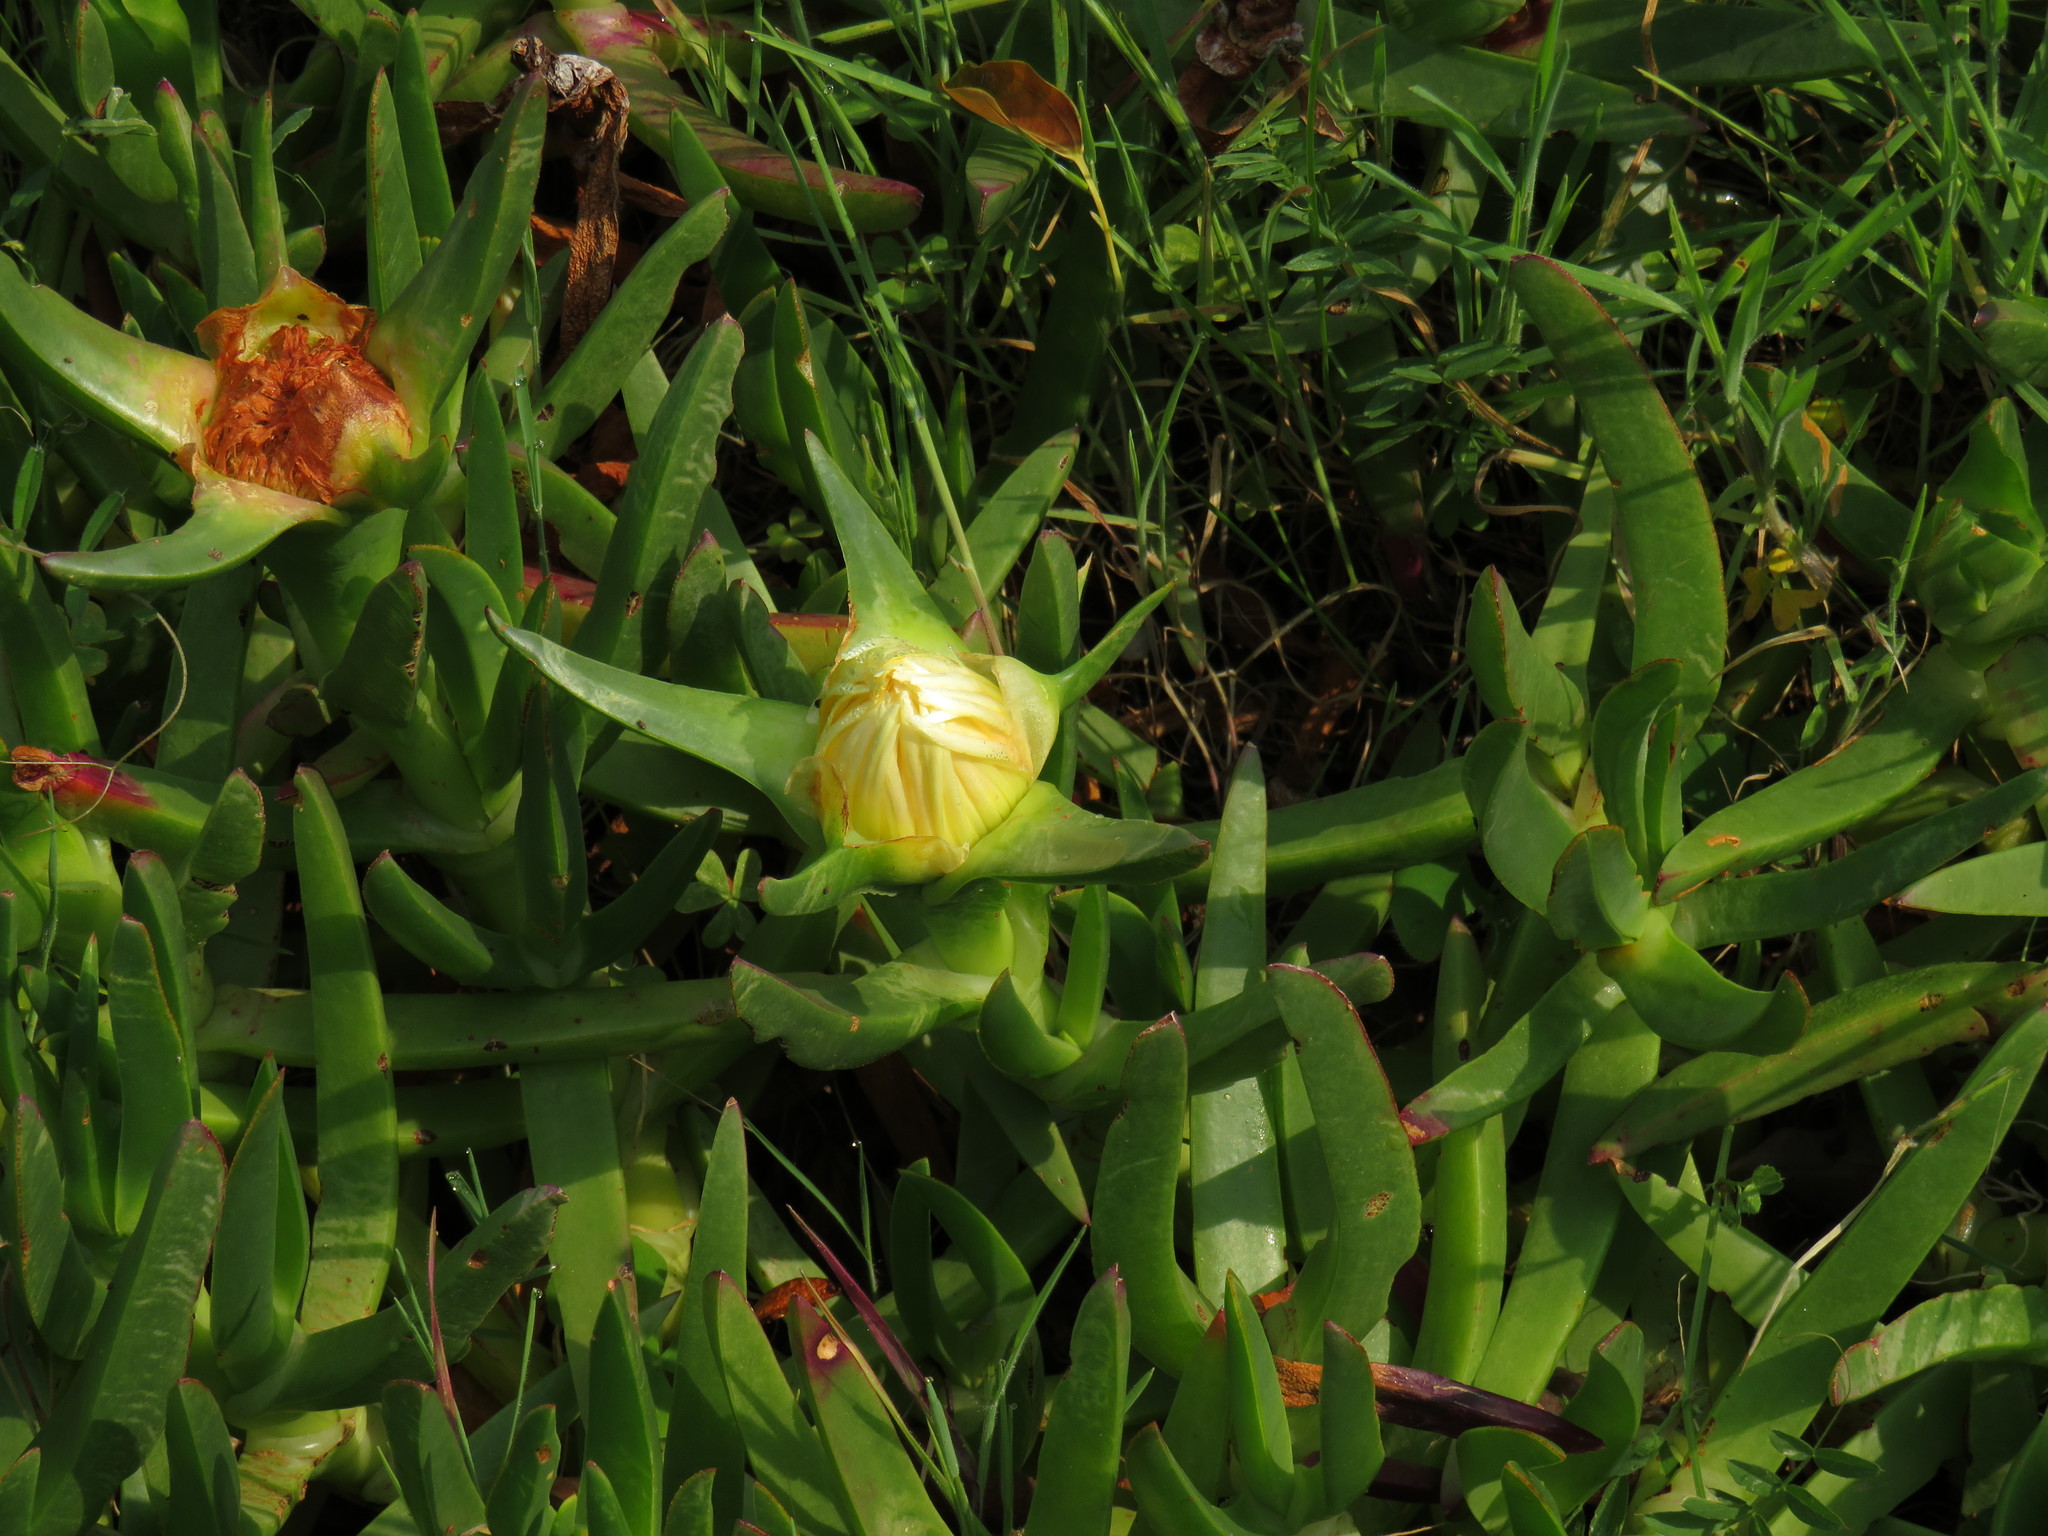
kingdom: Plantae
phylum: Tracheophyta
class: Magnoliopsida
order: Caryophyllales
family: Aizoaceae
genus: Carpobrotus
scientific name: Carpobrotus edulis
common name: Hottentot-fig
